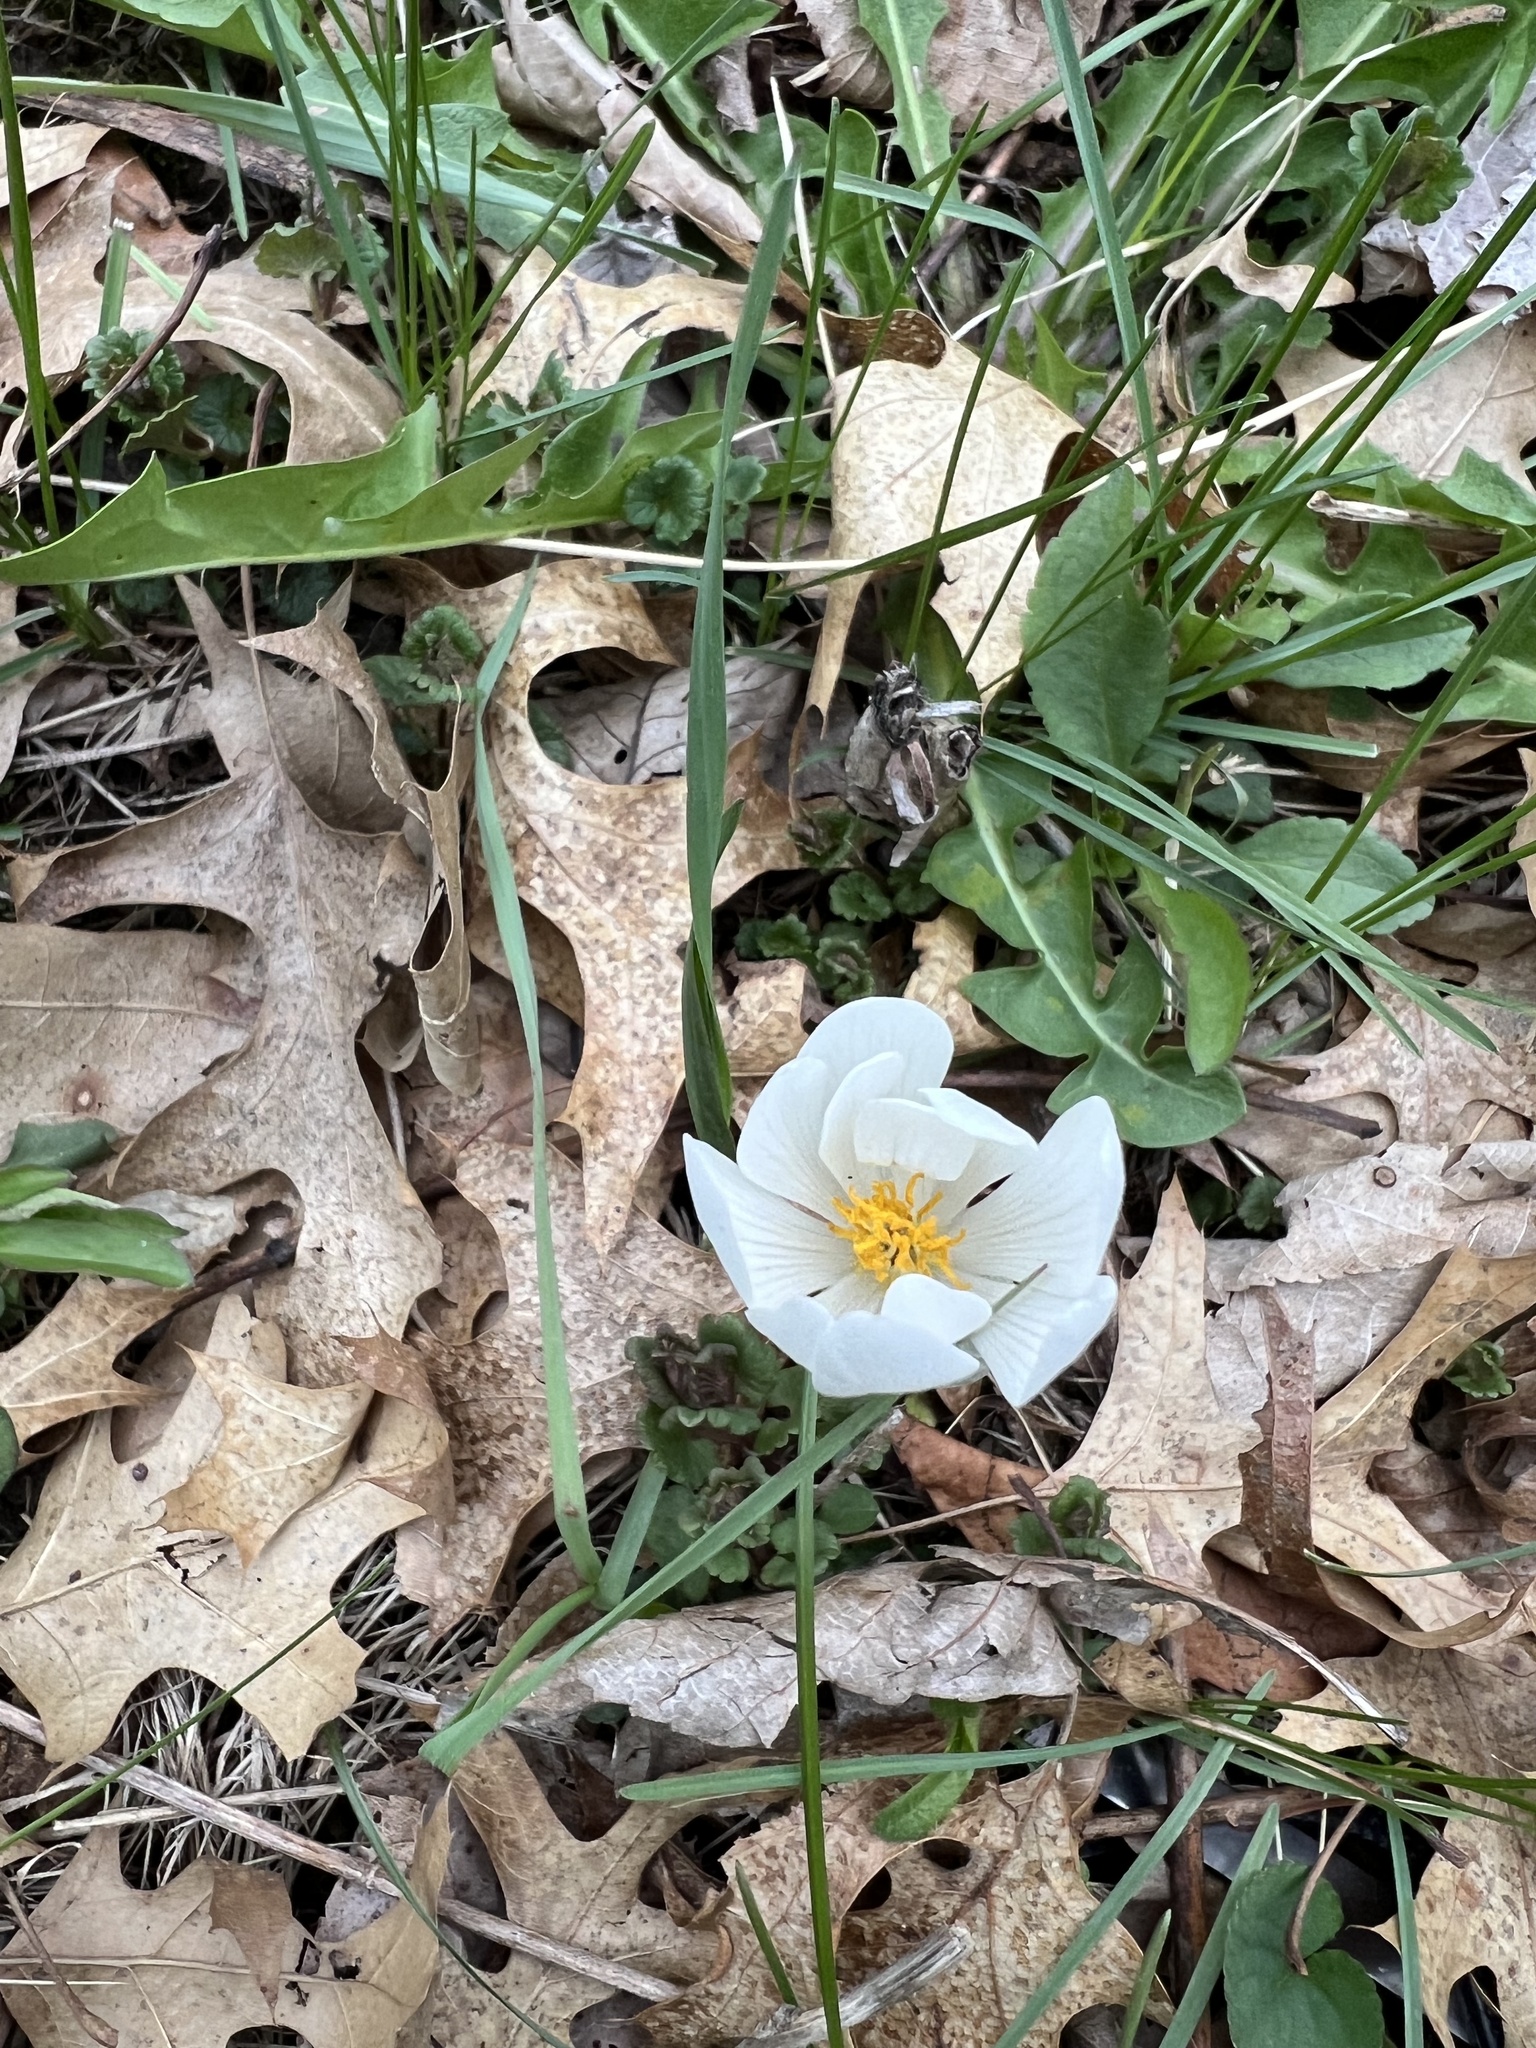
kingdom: Plantae
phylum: Tracheophyta
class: Magnoliopsida
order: Ranunculales
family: Papaveraceae
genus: Sanguinaria
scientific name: Sanguinaria canadensis
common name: Bloodroot
